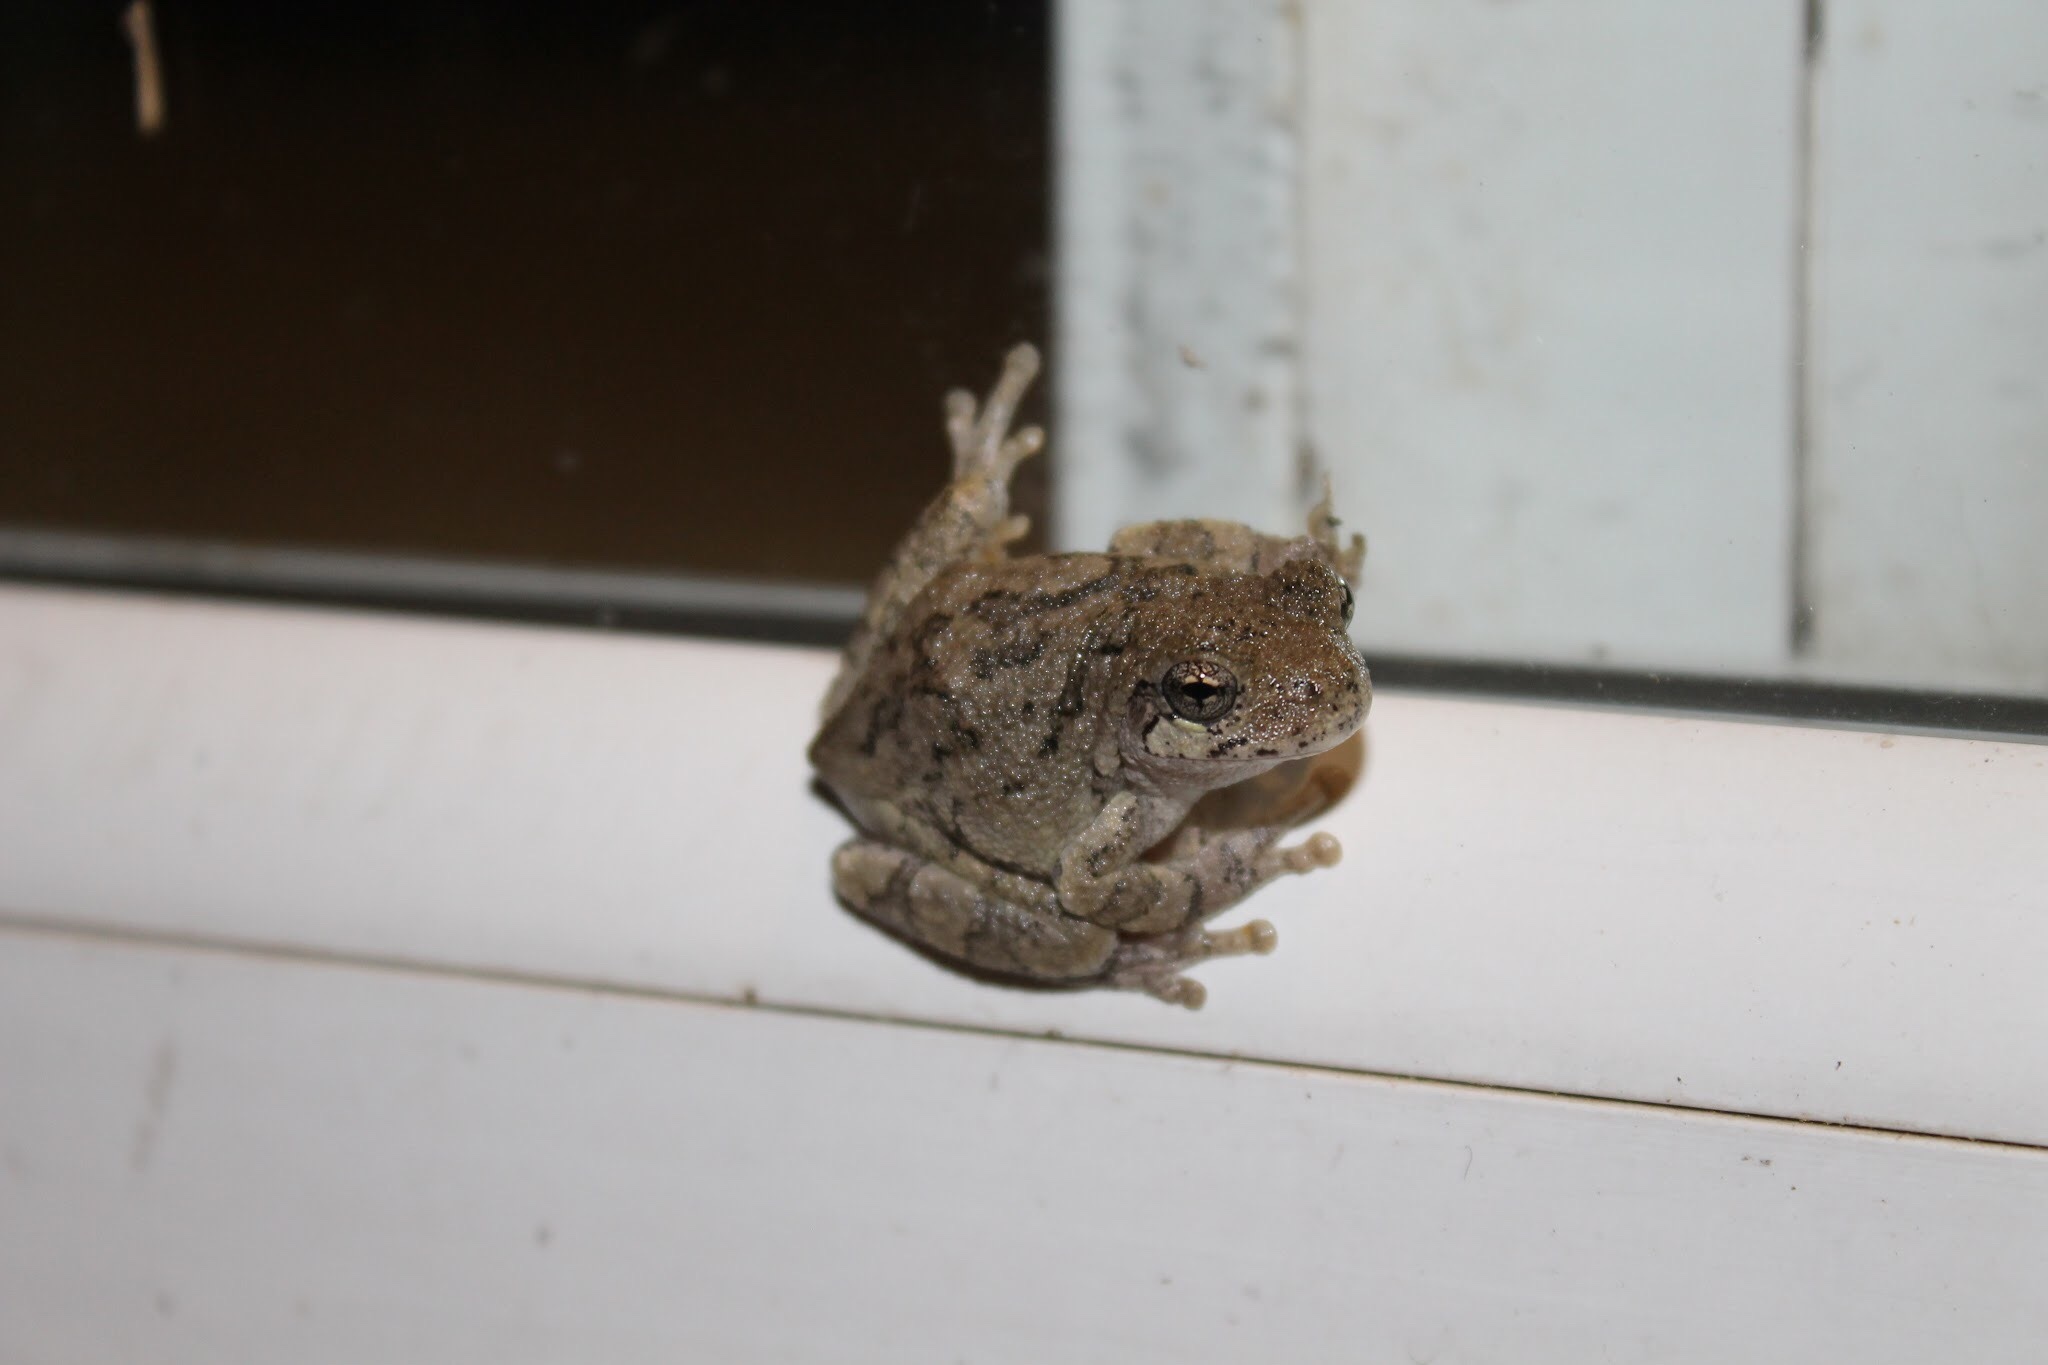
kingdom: Animalia
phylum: Chordata
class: Amphibia
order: Anura
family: Hylidae
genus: Dryophytes
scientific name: Dryophytes versicolor
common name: Gray treefrog
